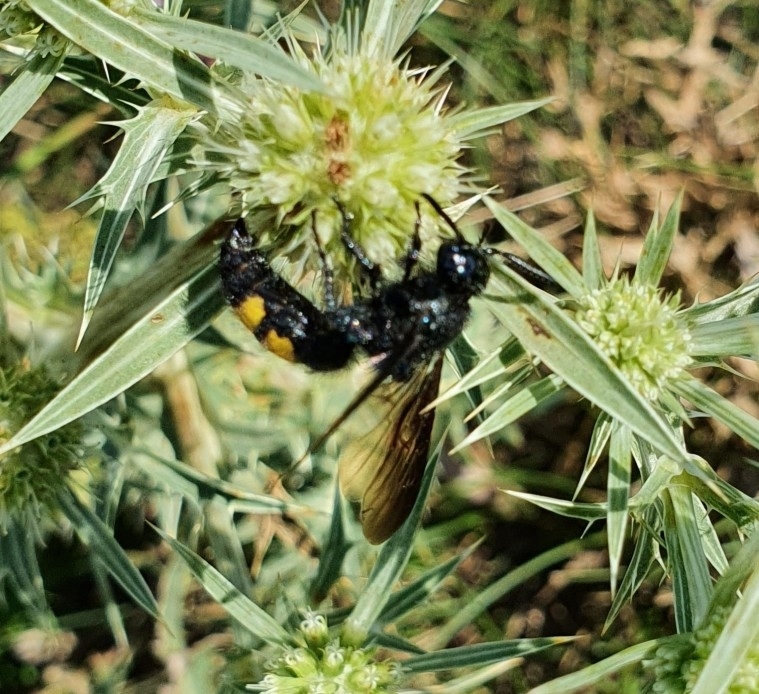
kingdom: Animalia
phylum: Arthropoda
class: Insecta
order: Hymenoptera
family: Scoliidae
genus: Scolia
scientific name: Scolia hirta
